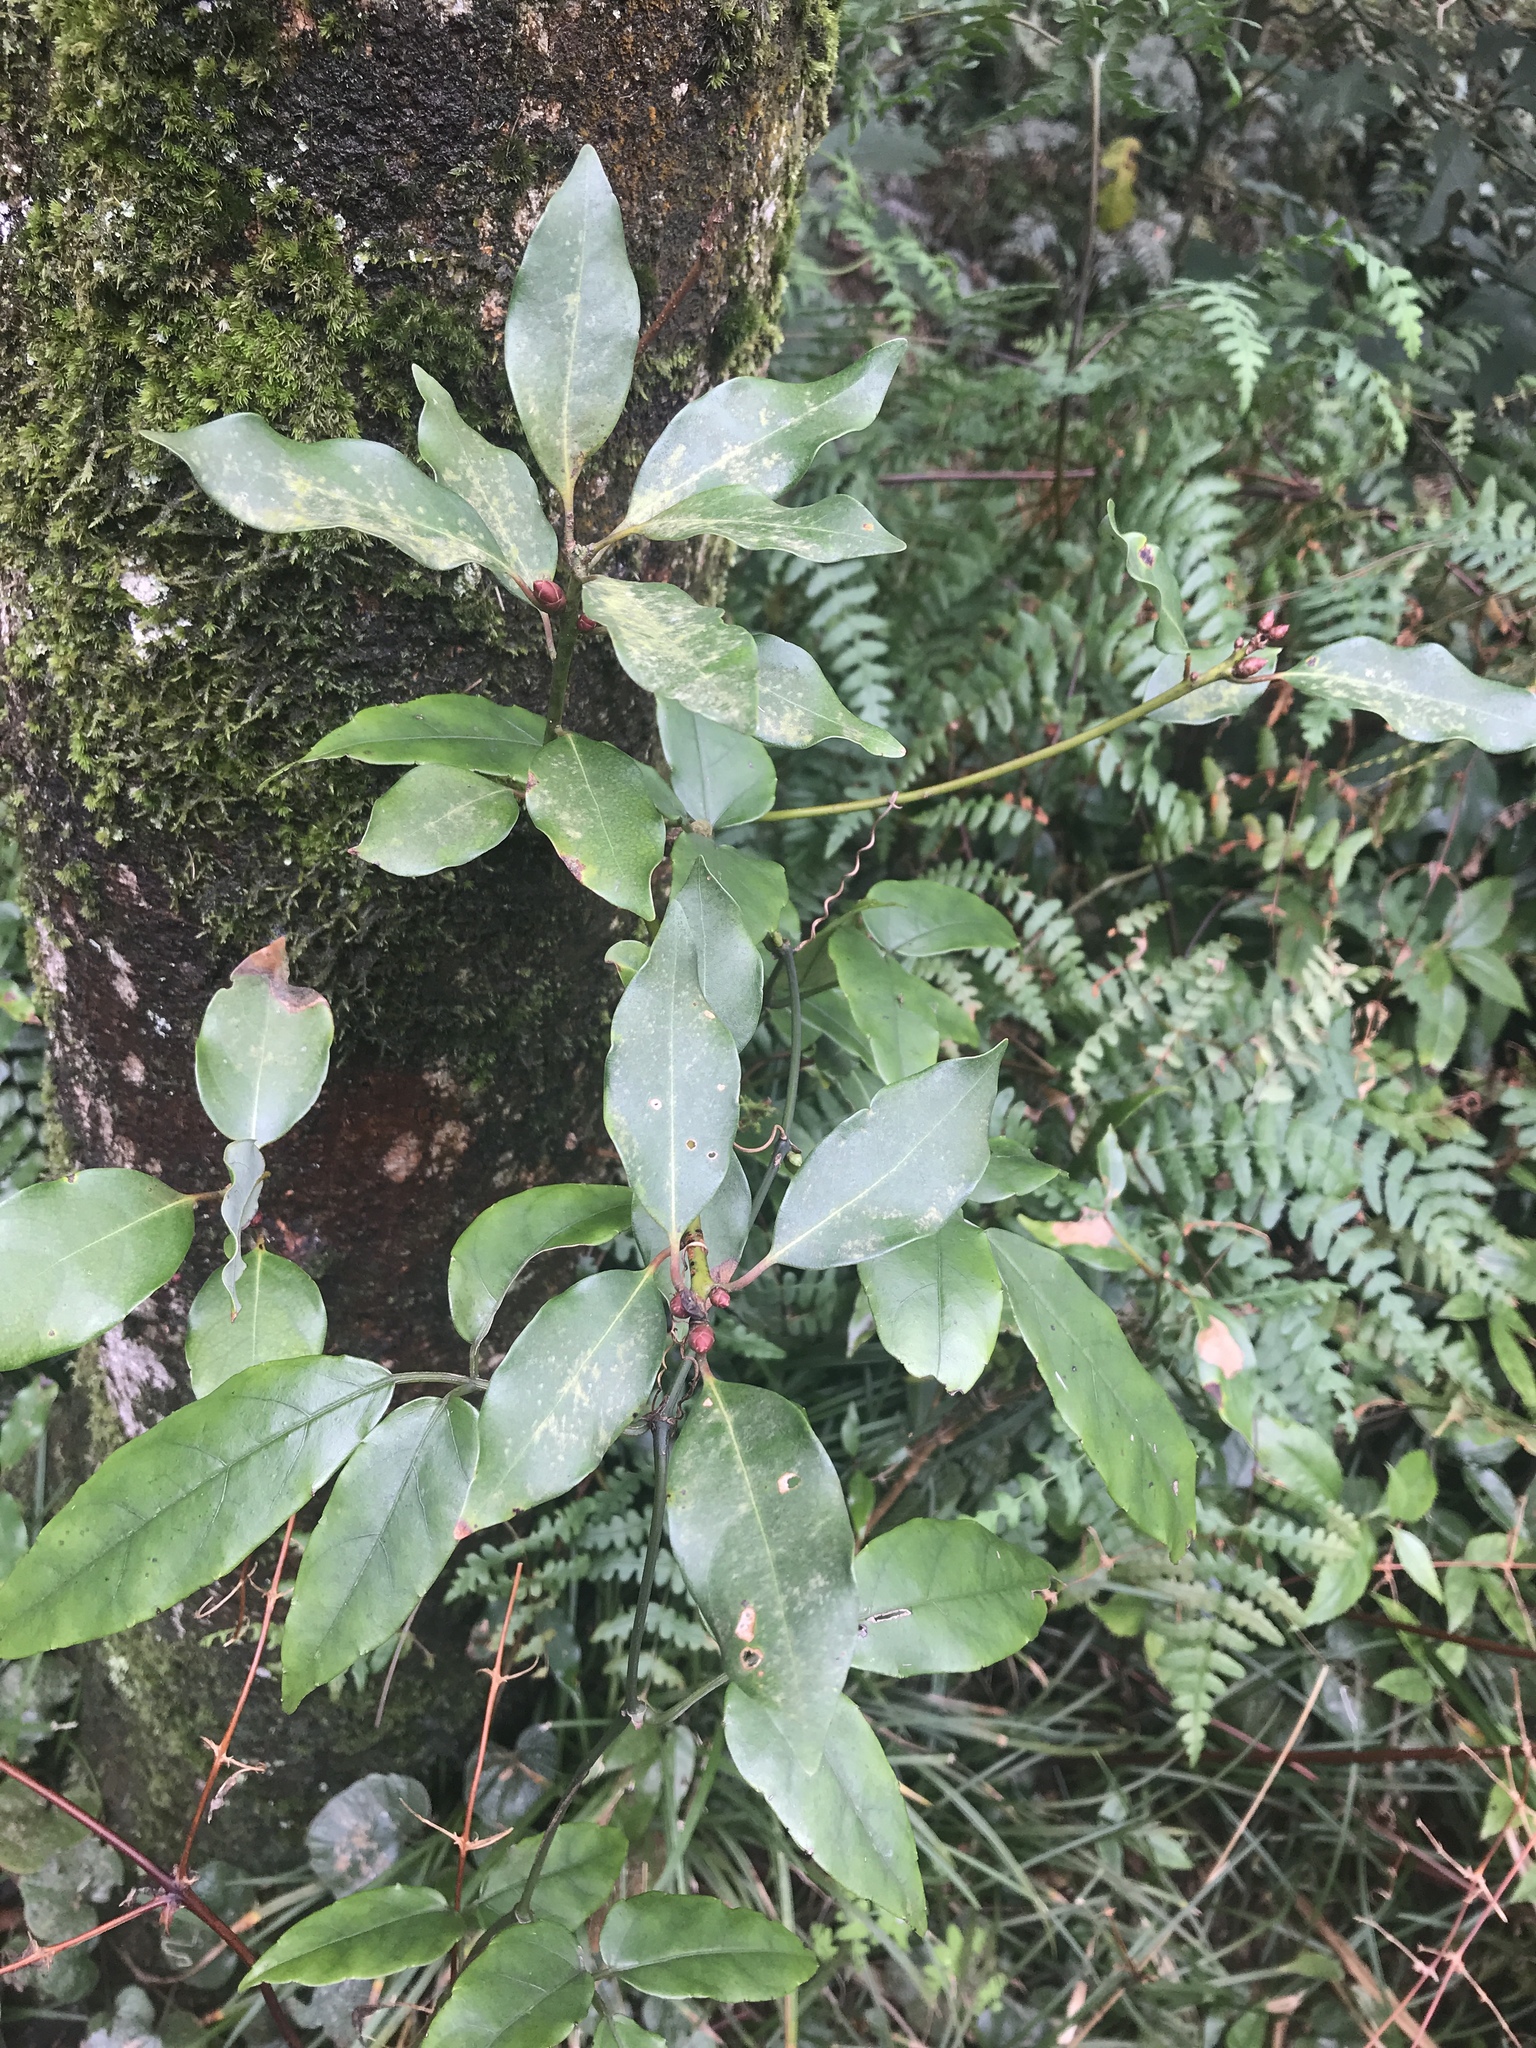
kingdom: Plantae
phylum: Tracheophyta
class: Magnoliopsida
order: Laurales
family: Lauraceae
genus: Machilus
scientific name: Machilus thunbergii
